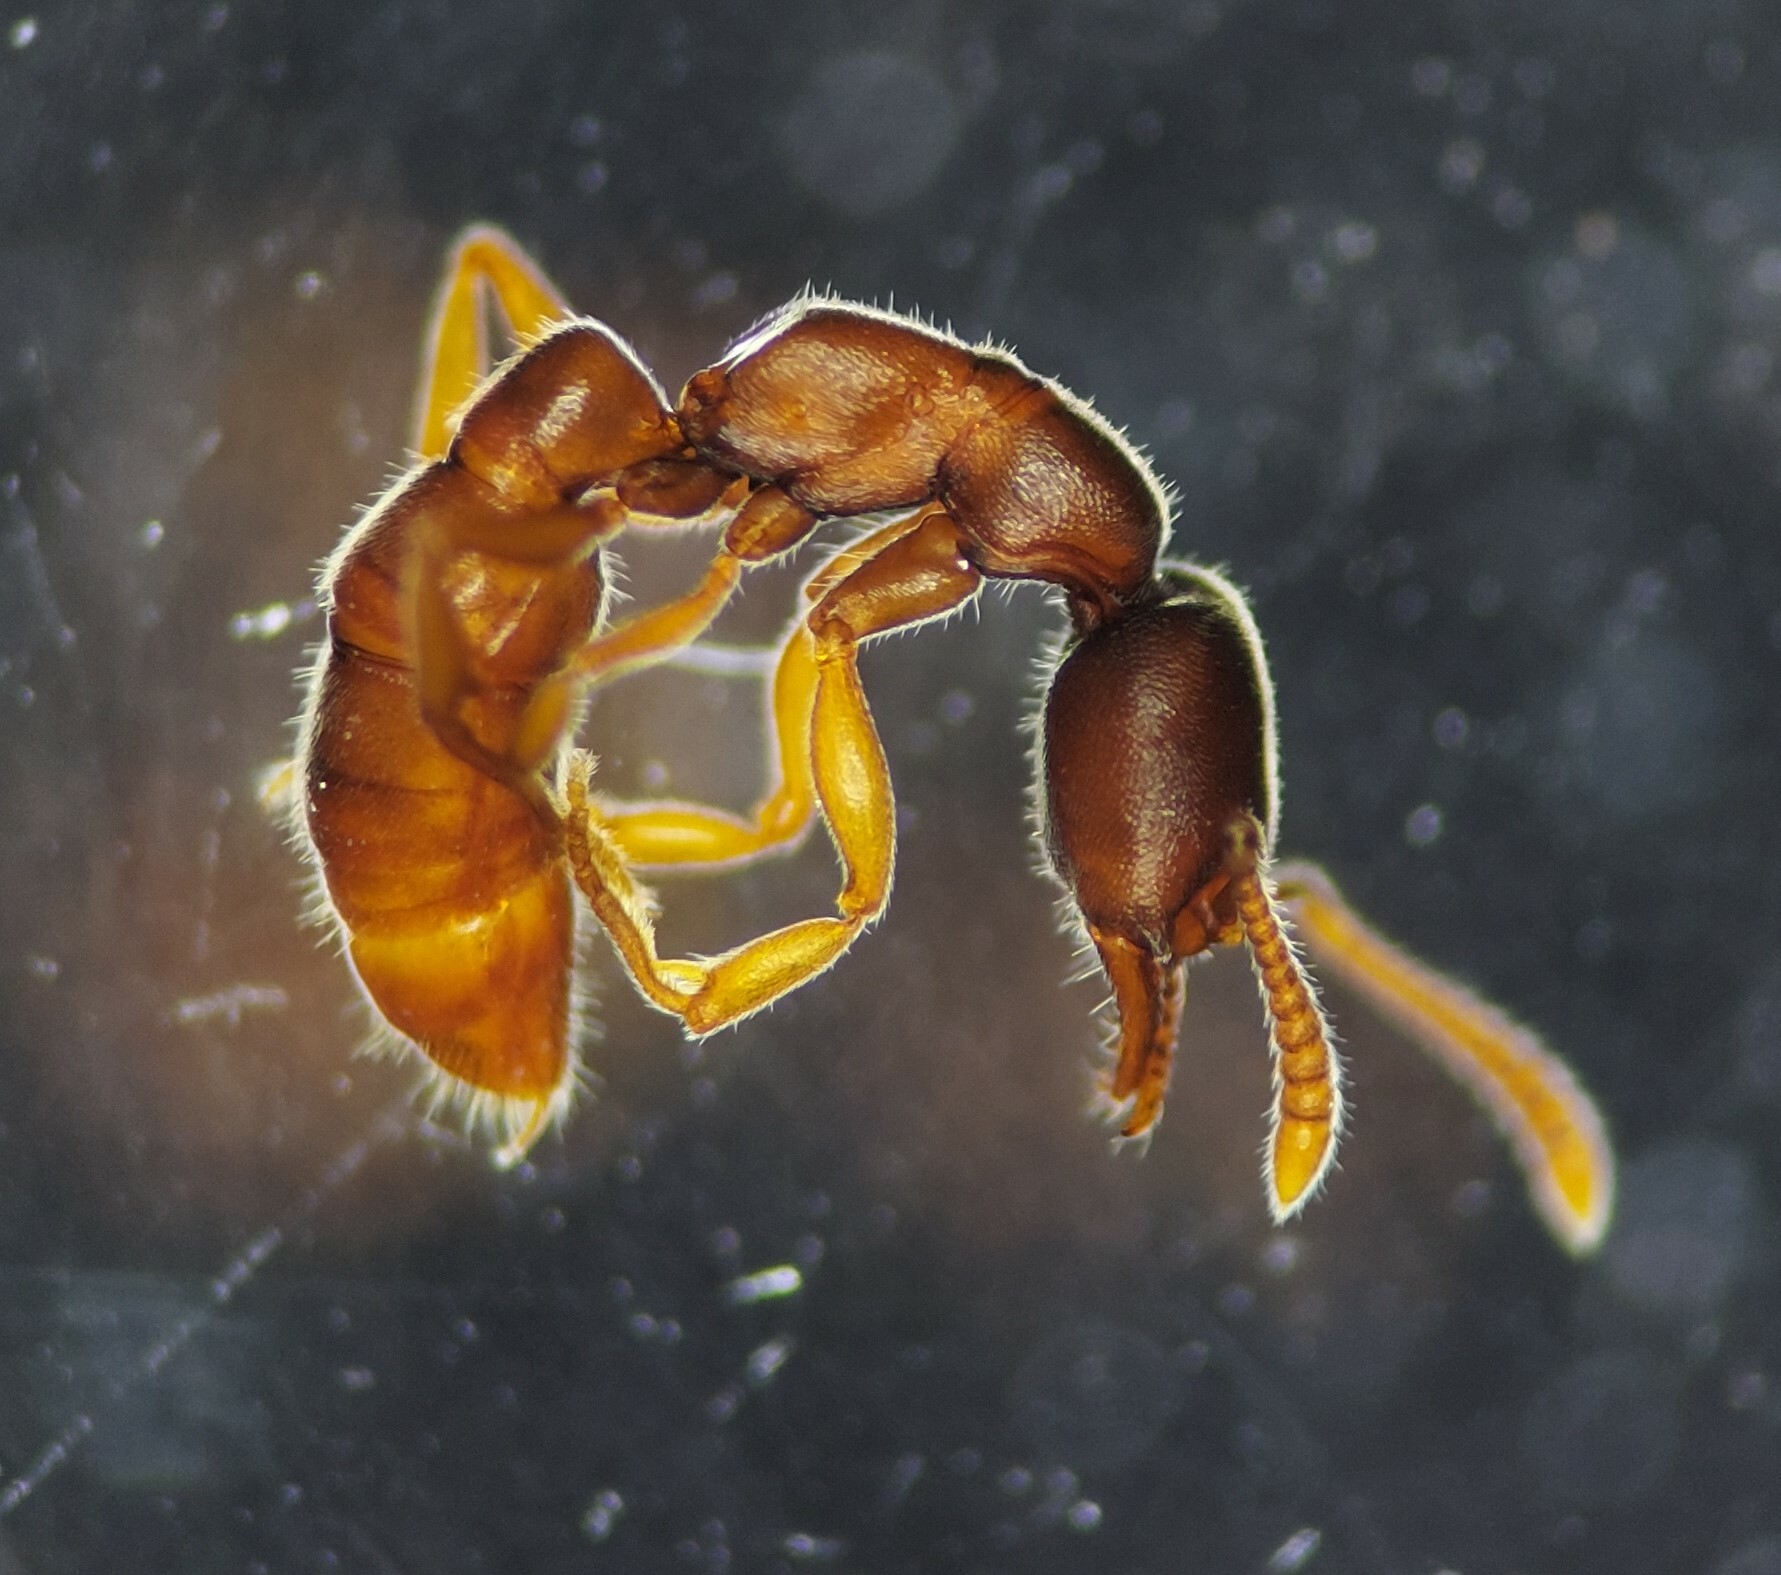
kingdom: Animalia
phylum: Arthropoda
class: Insecta
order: Hymenoptera
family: Formicidae
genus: Stigmatomma
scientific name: Stigmatomma pallipes
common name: Vampire ant
